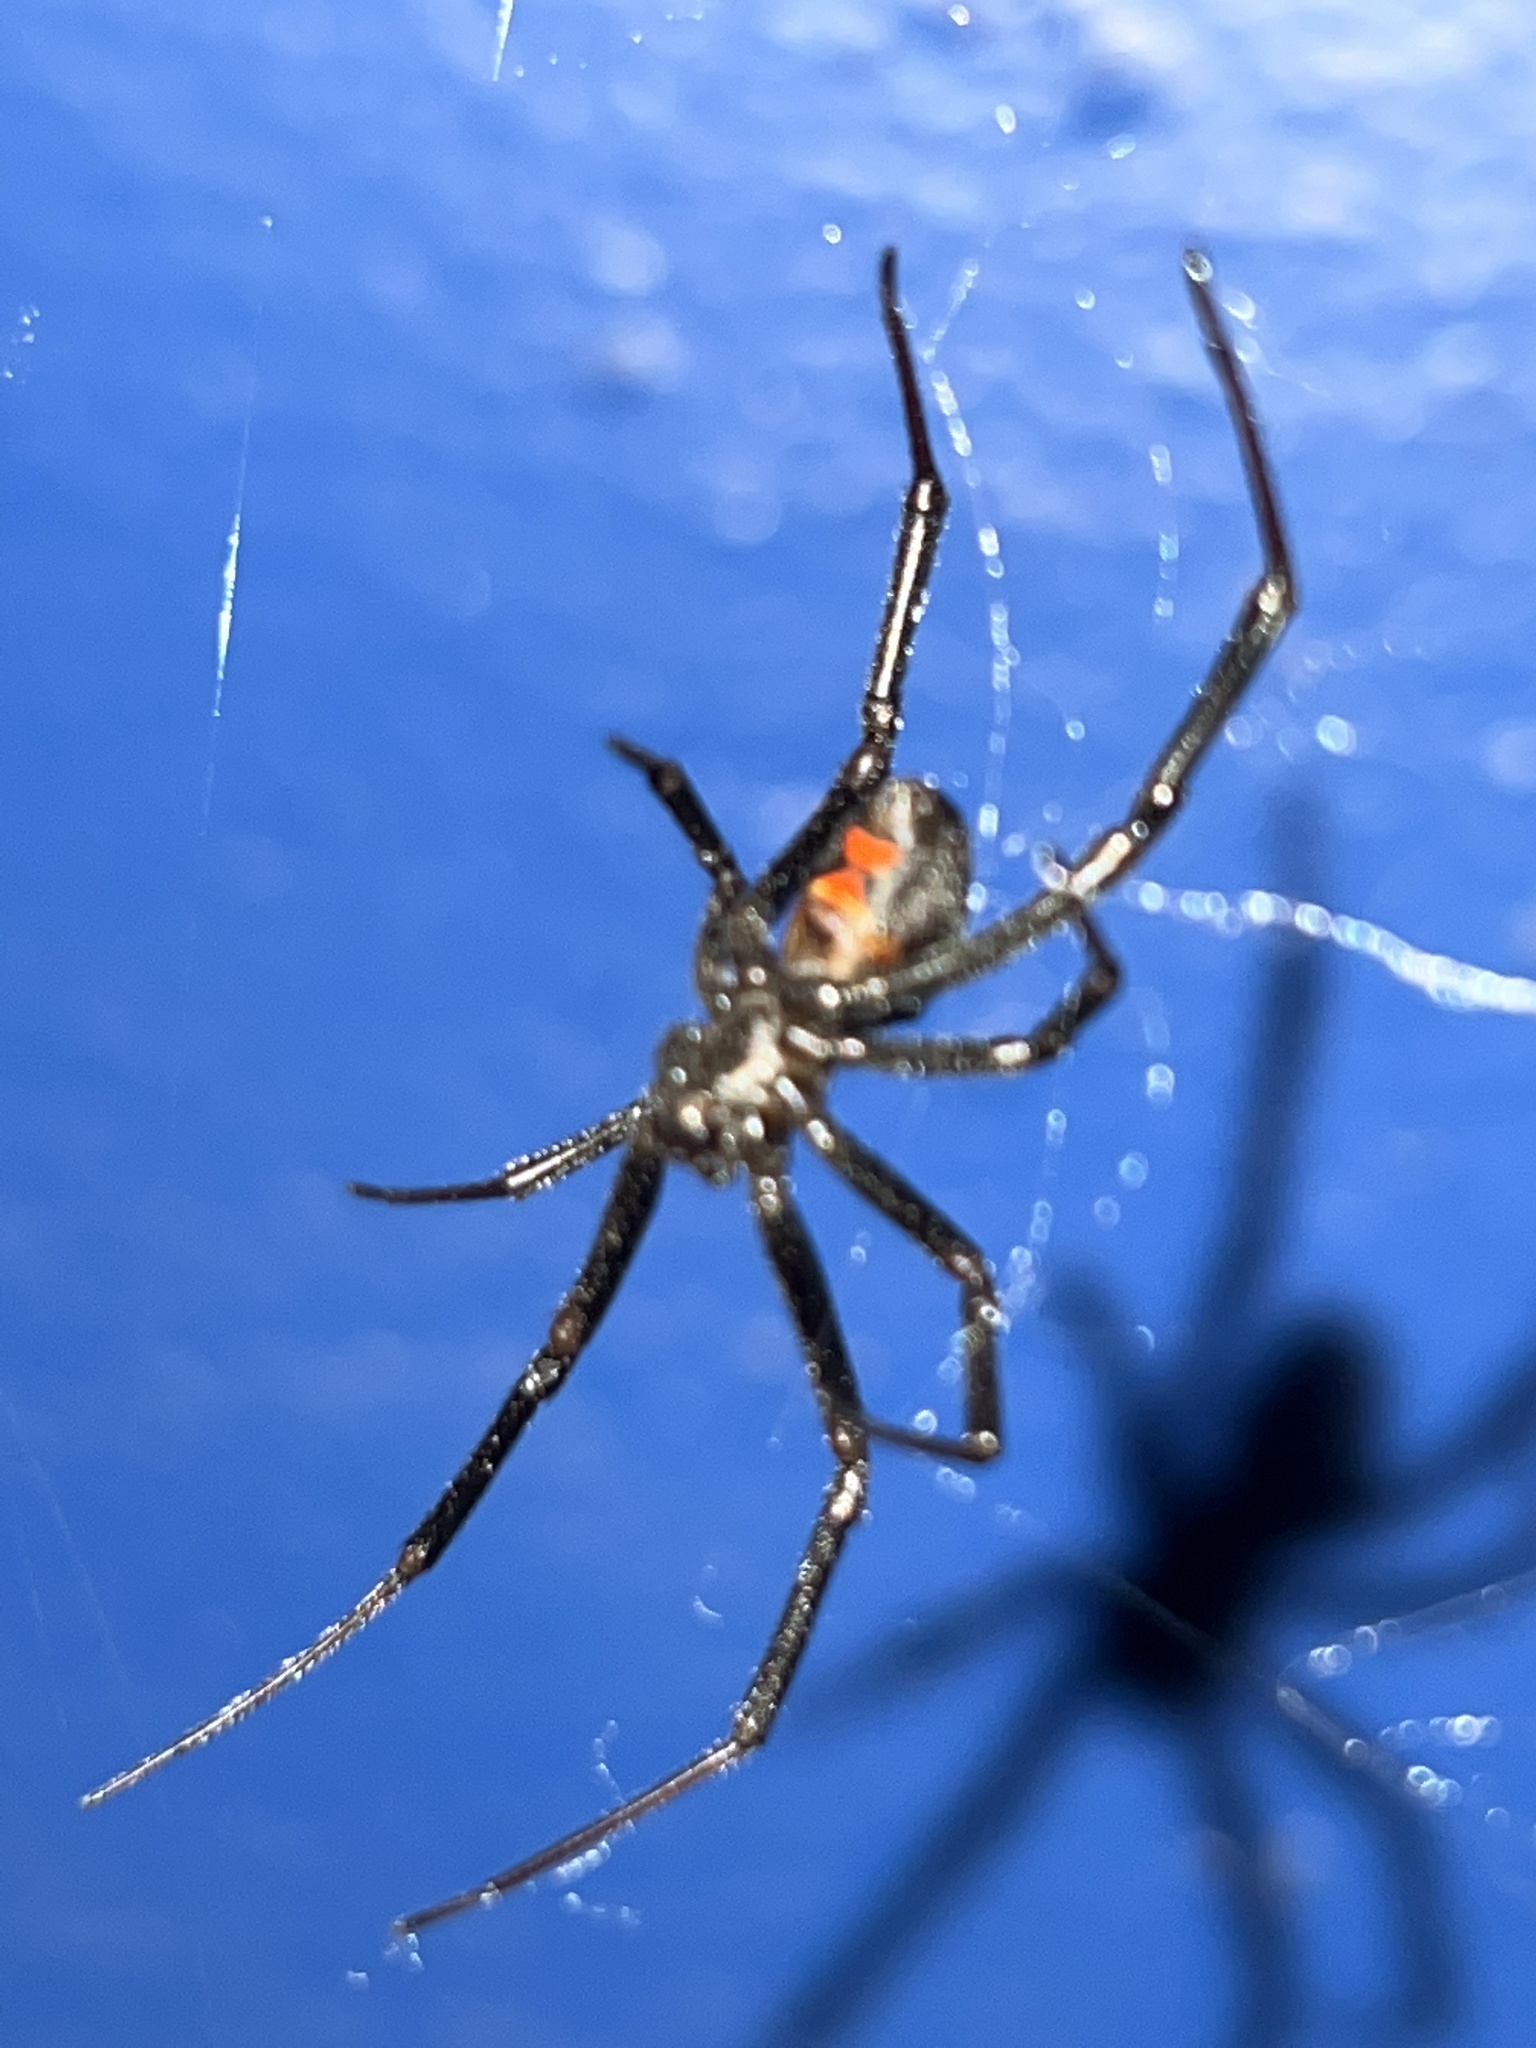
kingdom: Animalia
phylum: Arthropoda
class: Arachnida
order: Araneae
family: Theridiidae
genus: Latrodectus
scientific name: Latrodectus hesperus
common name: Western black widow
